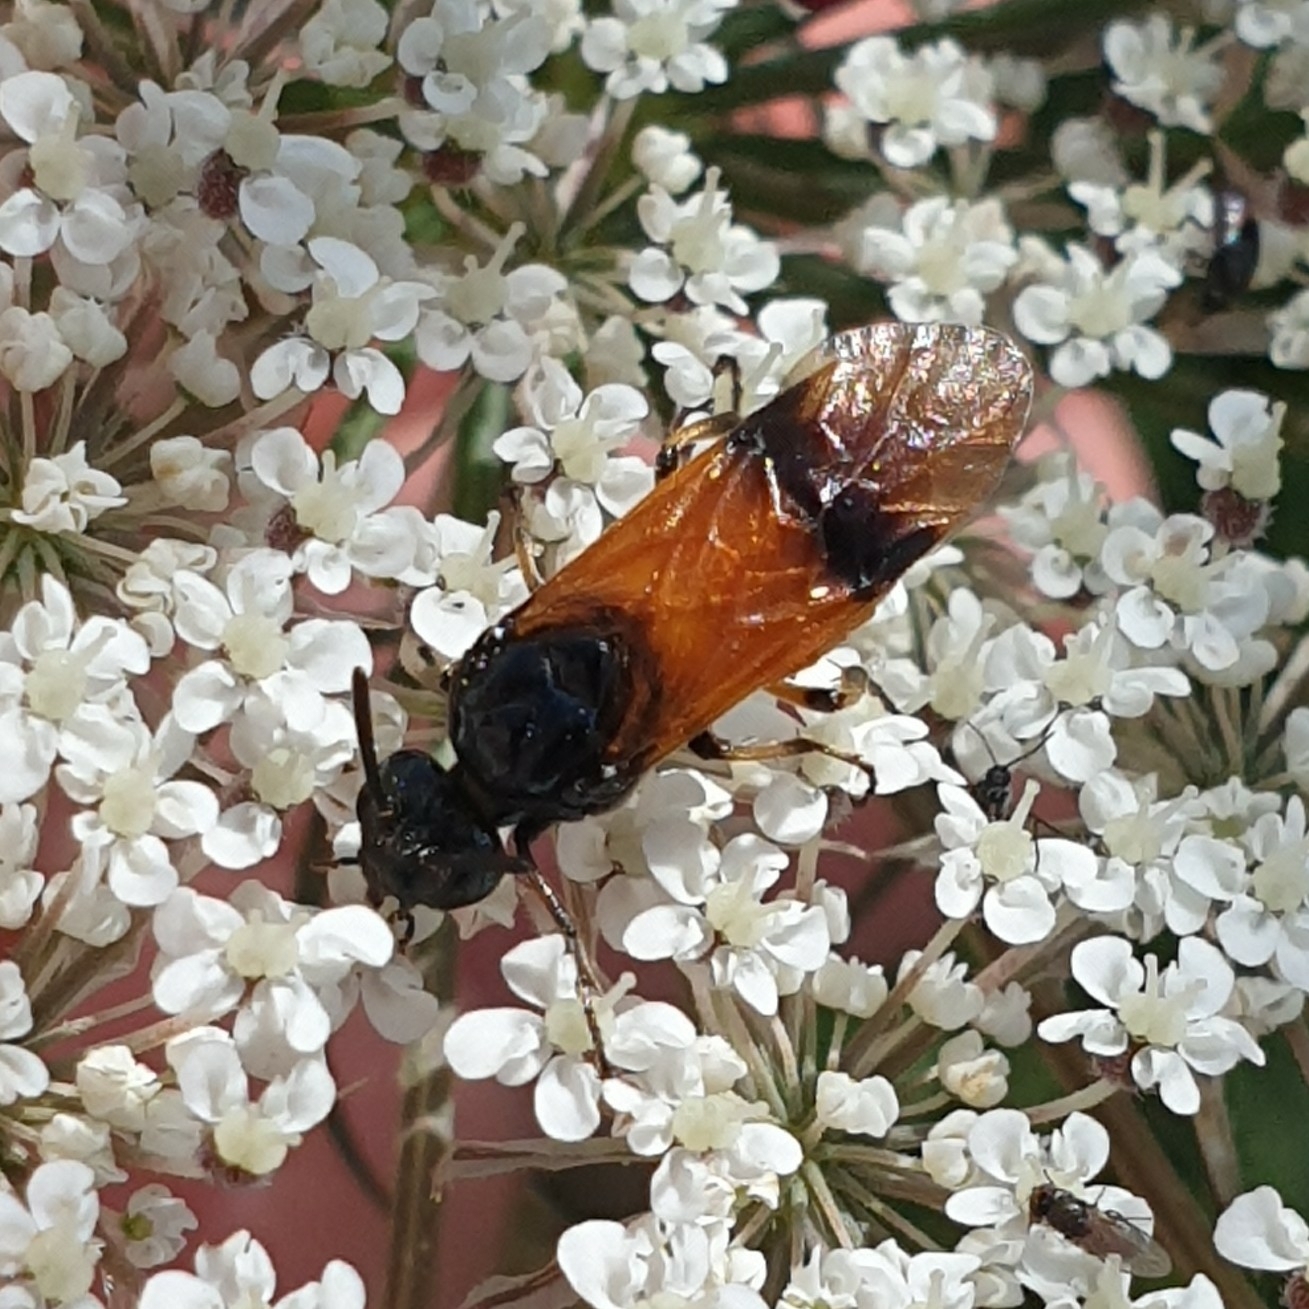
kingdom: Animalia
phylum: Arthropoda
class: Insecta
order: Hymenoptera
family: Argidae
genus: Arge
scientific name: Arge cyanocrocea
